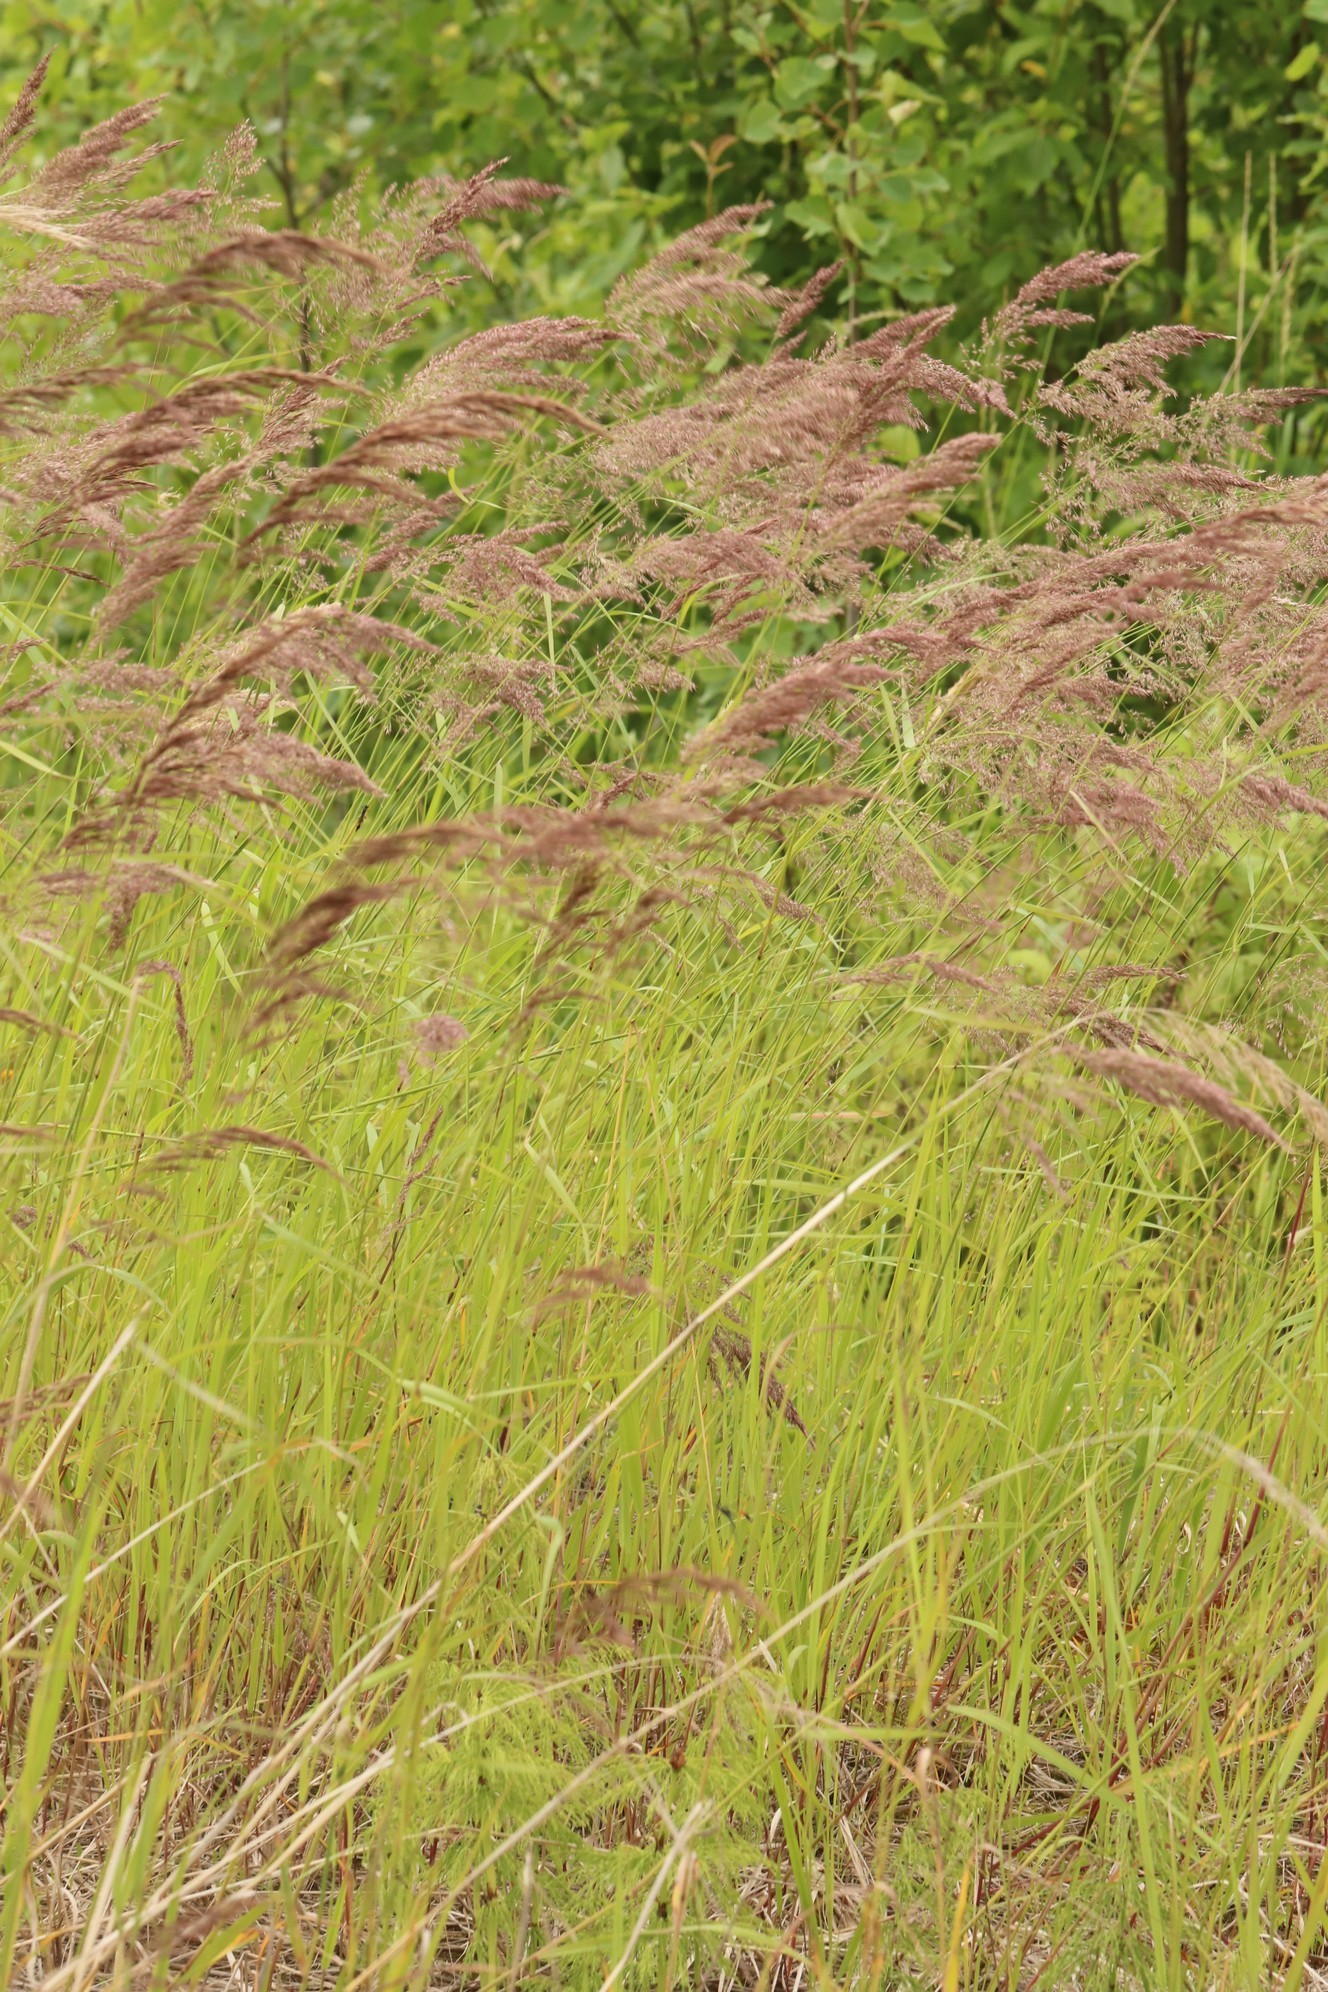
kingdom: Plantae
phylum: Tracheophyta
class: Liliopsida
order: Poales
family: Poaceae
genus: Calamagrostis
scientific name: Calamagrostis purpurea
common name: Scandinavian small-reed
